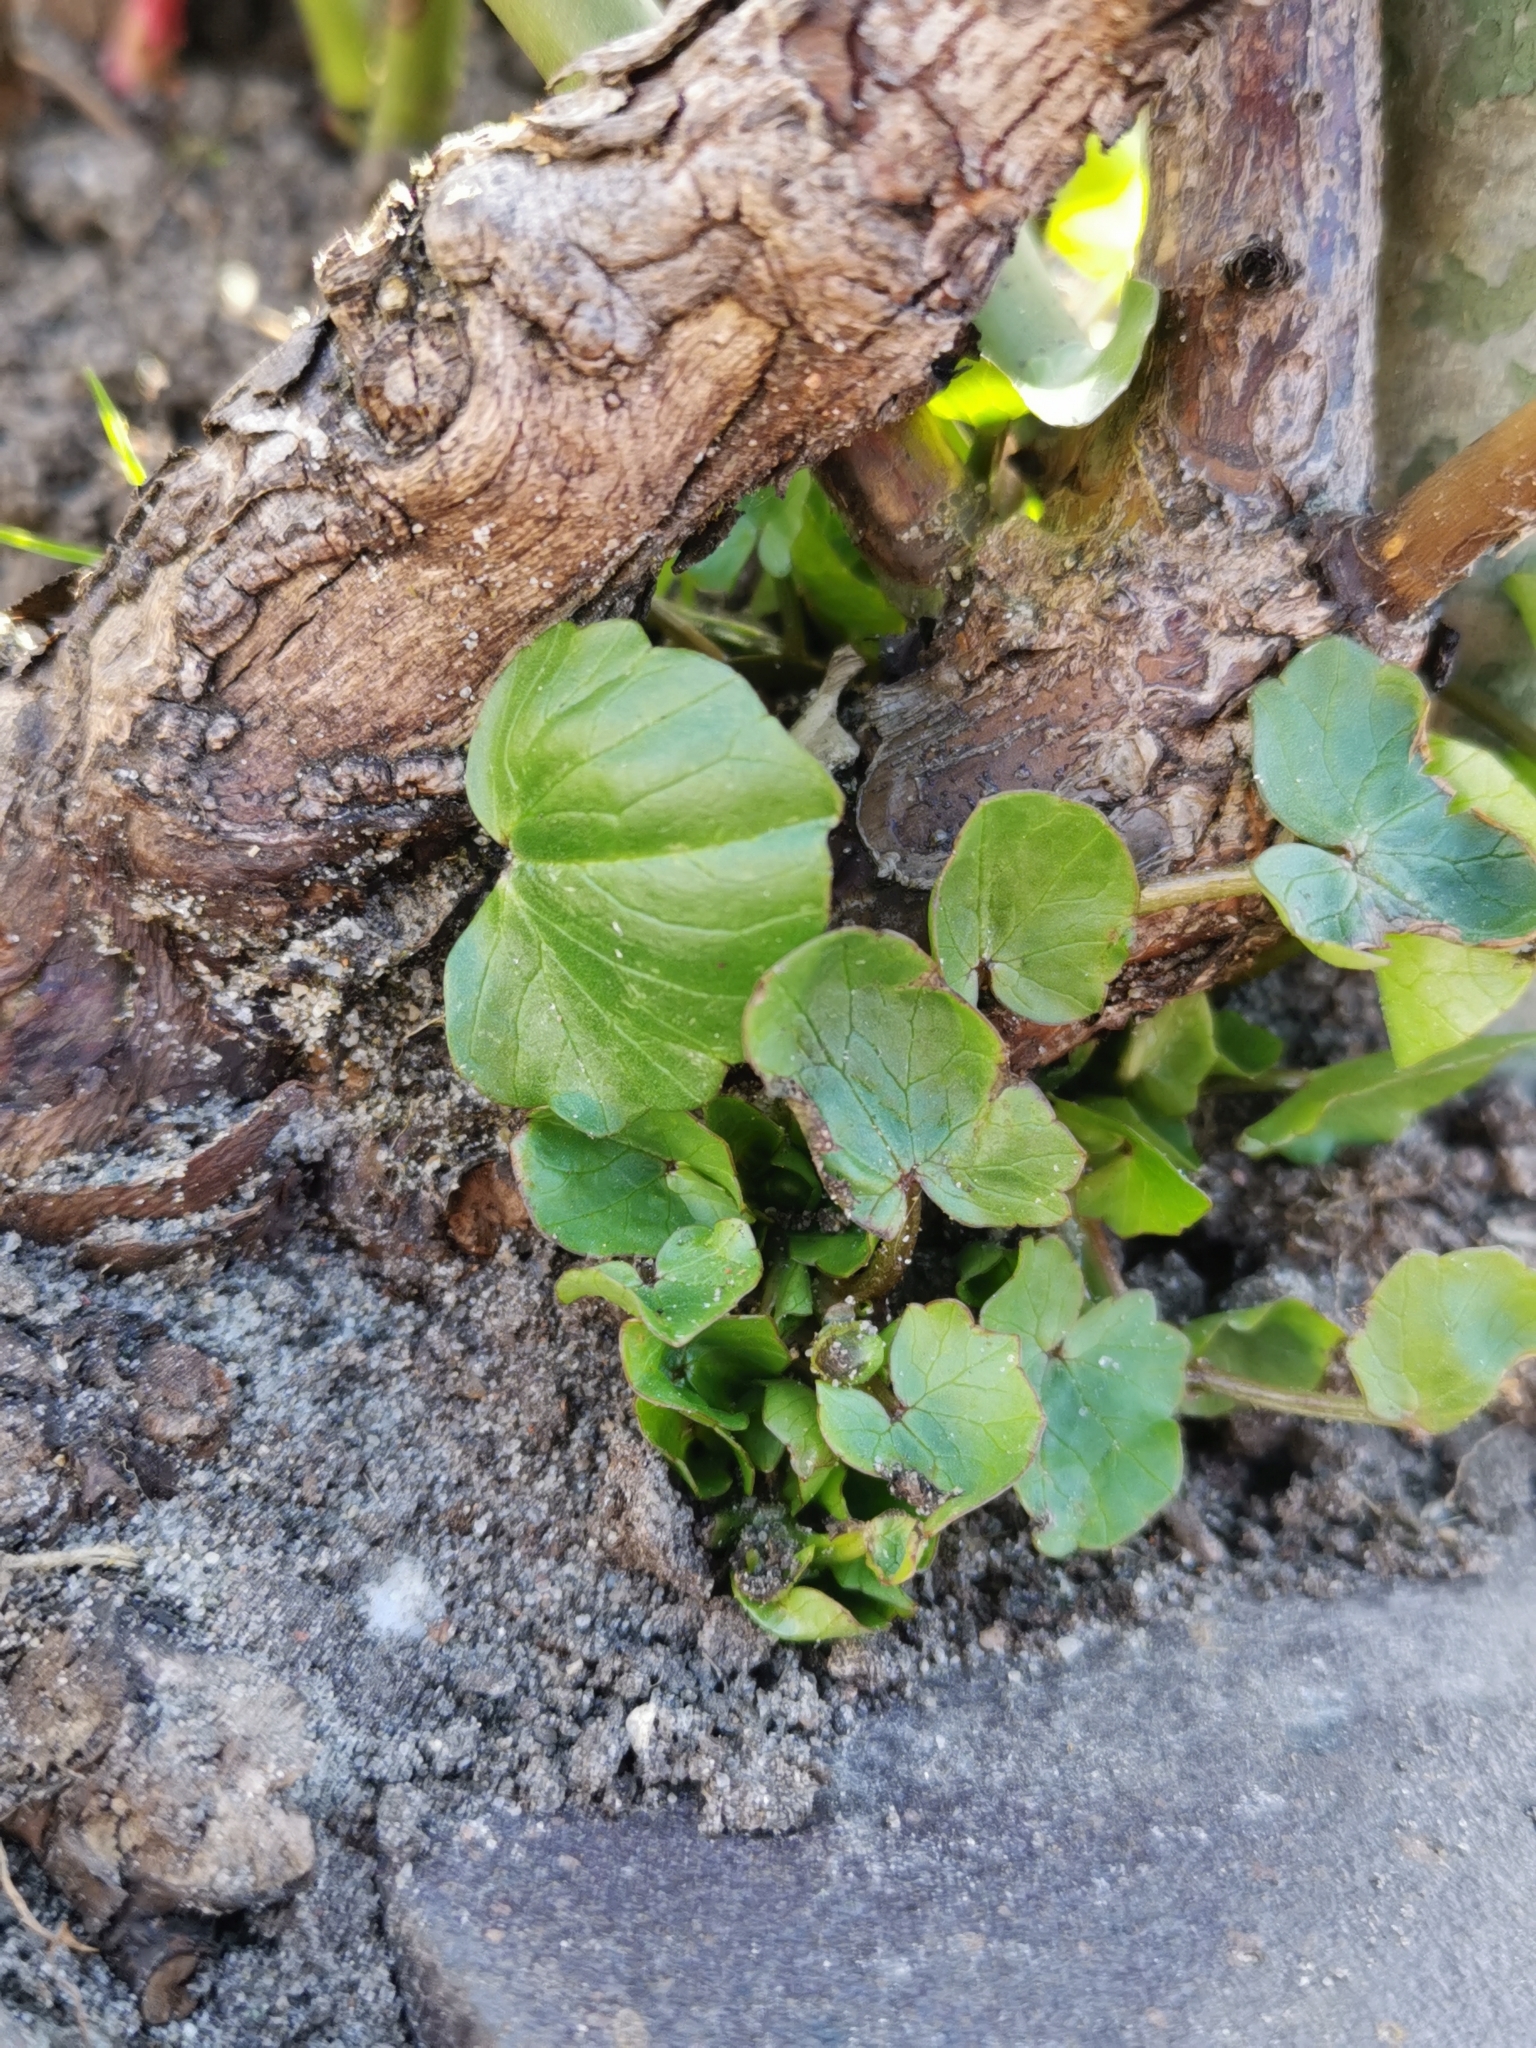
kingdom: Plantae
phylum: Tracheophyta
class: Magnoliopsida
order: Ranunculales
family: Ranunculaceae
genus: Ficaria
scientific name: Ficaria verna
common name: Lesser celandine
